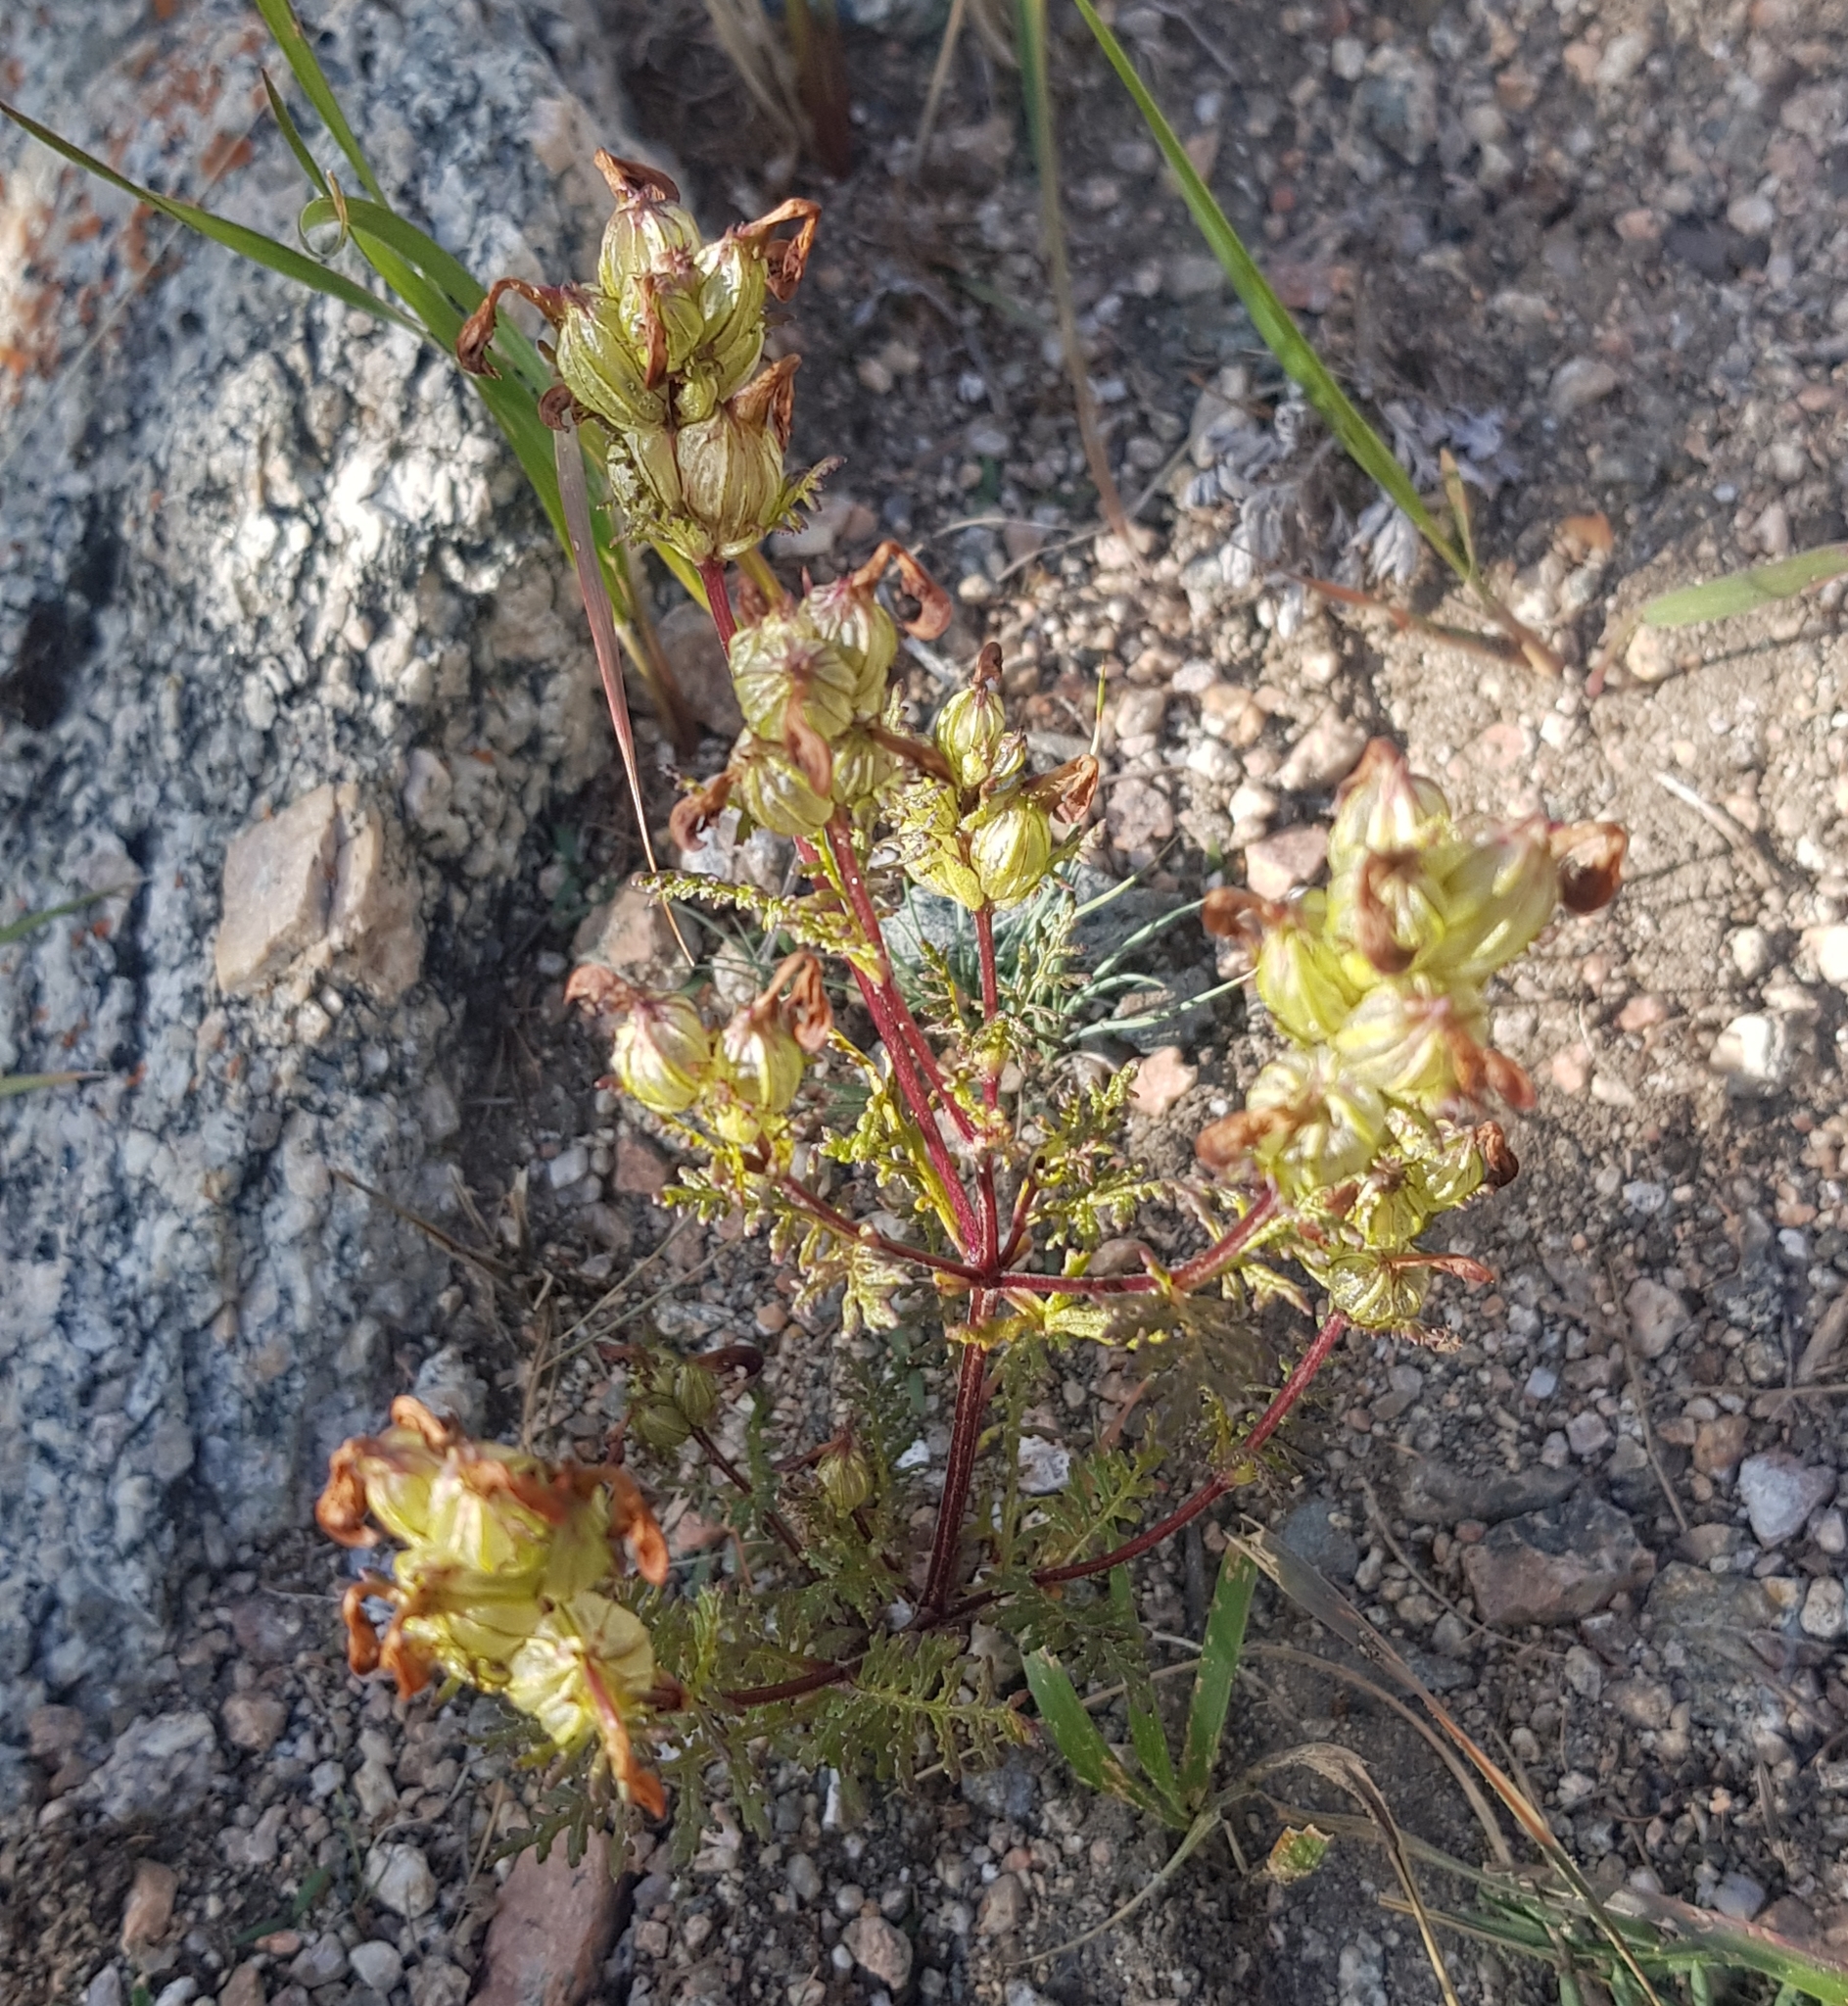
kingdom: Plantae
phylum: Tracheophyta
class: Magnoliopsida
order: Lamiales
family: Orobanchaceae
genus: Pedicularis
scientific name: Pedicularis myriophylla
